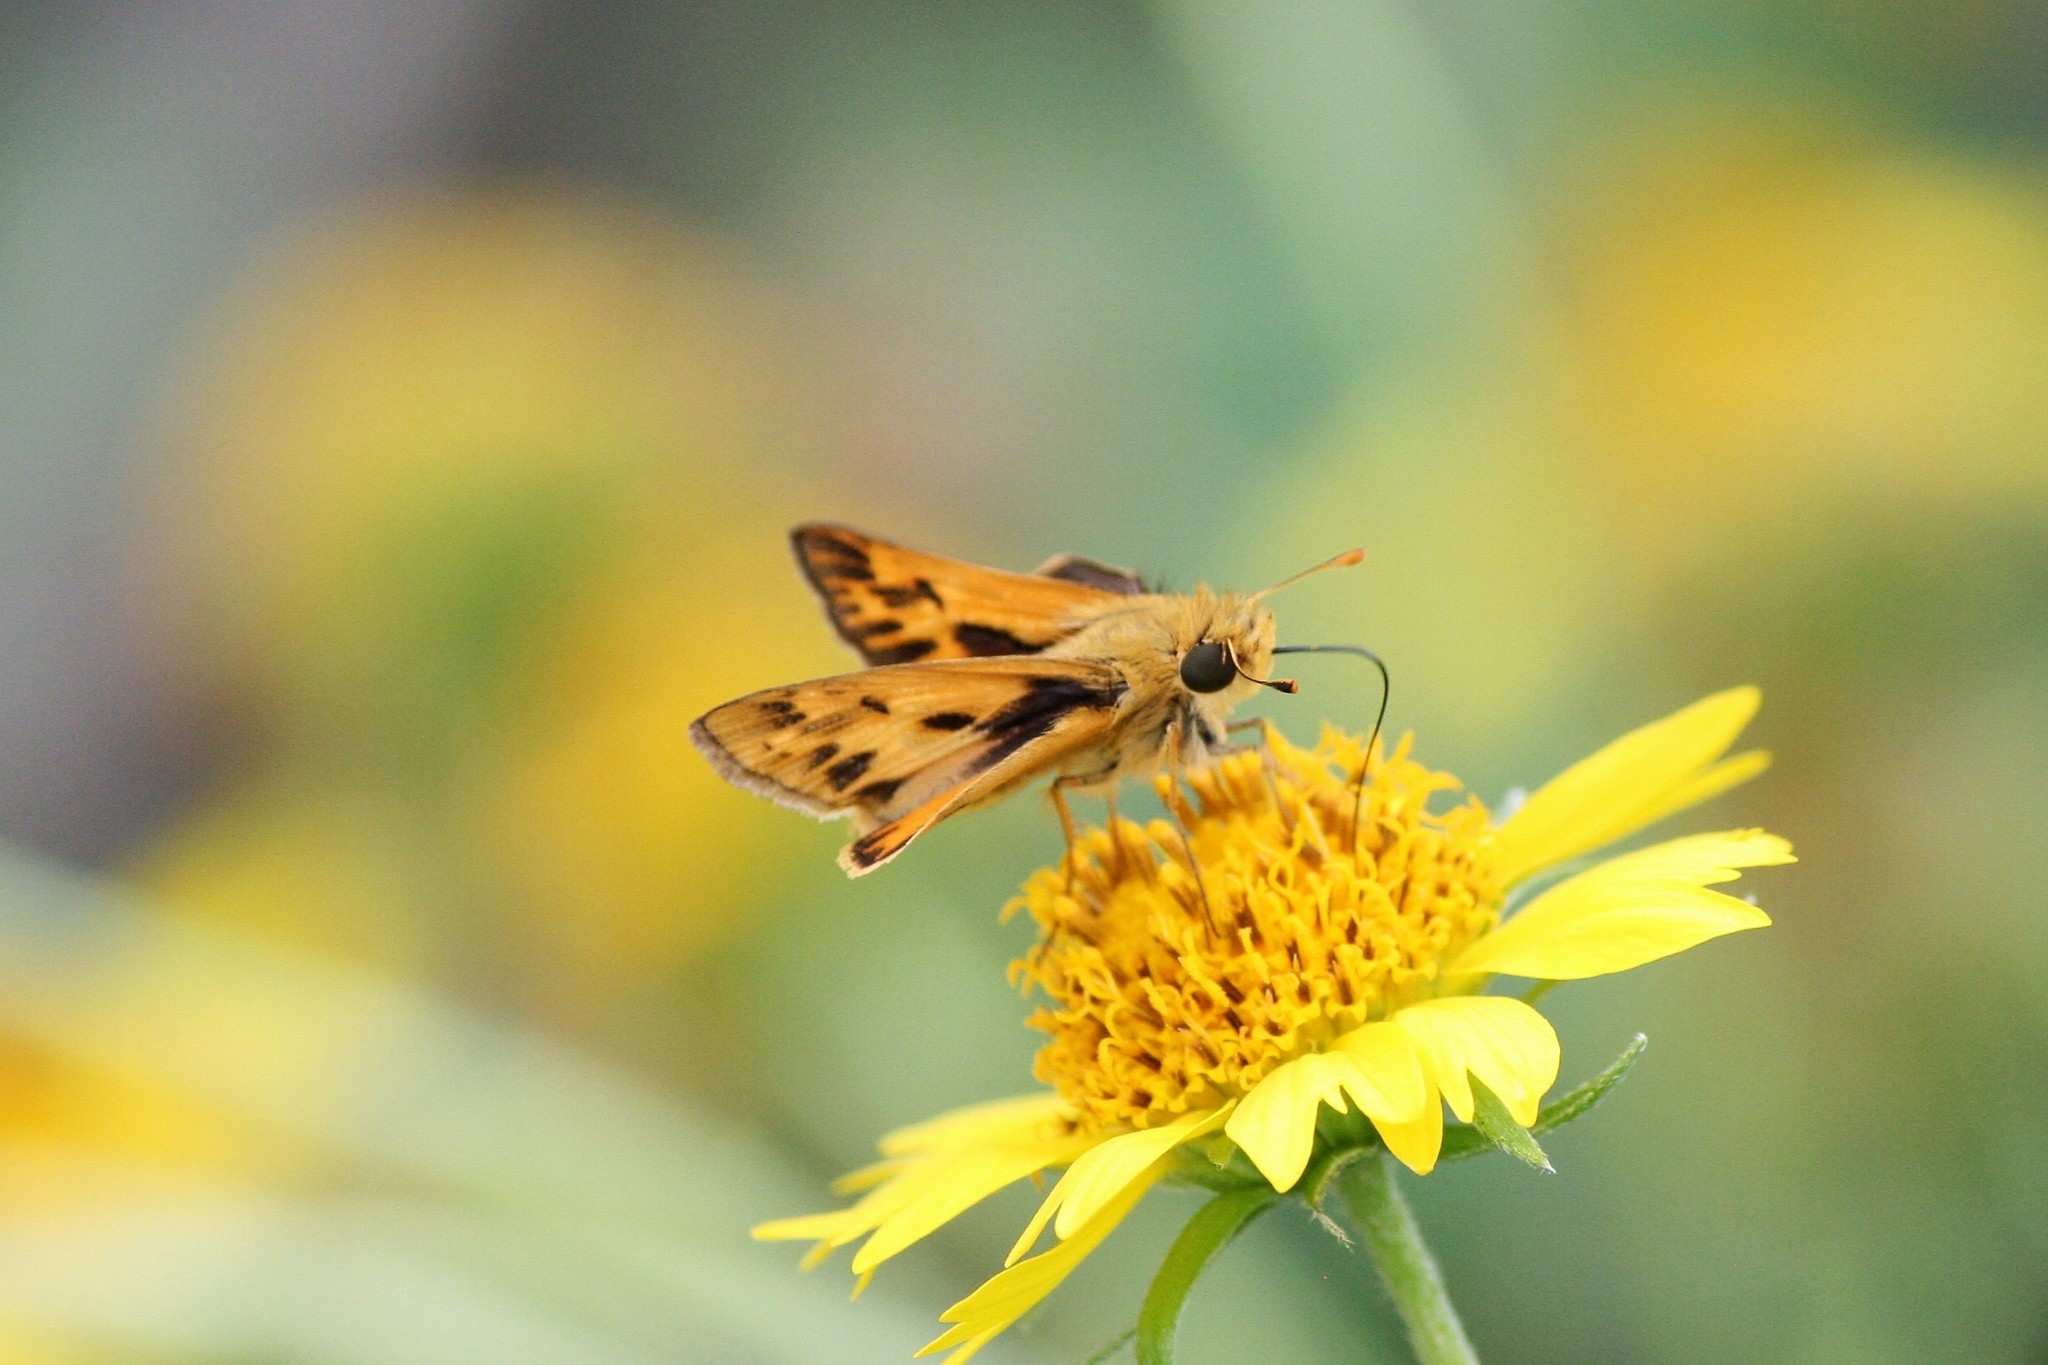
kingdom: Animalia
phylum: Arthropoda
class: Insecta
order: Lepidoptera
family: Hesperiidae
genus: Hylephila
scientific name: Hylephila phyleus
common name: Fiery skipper
